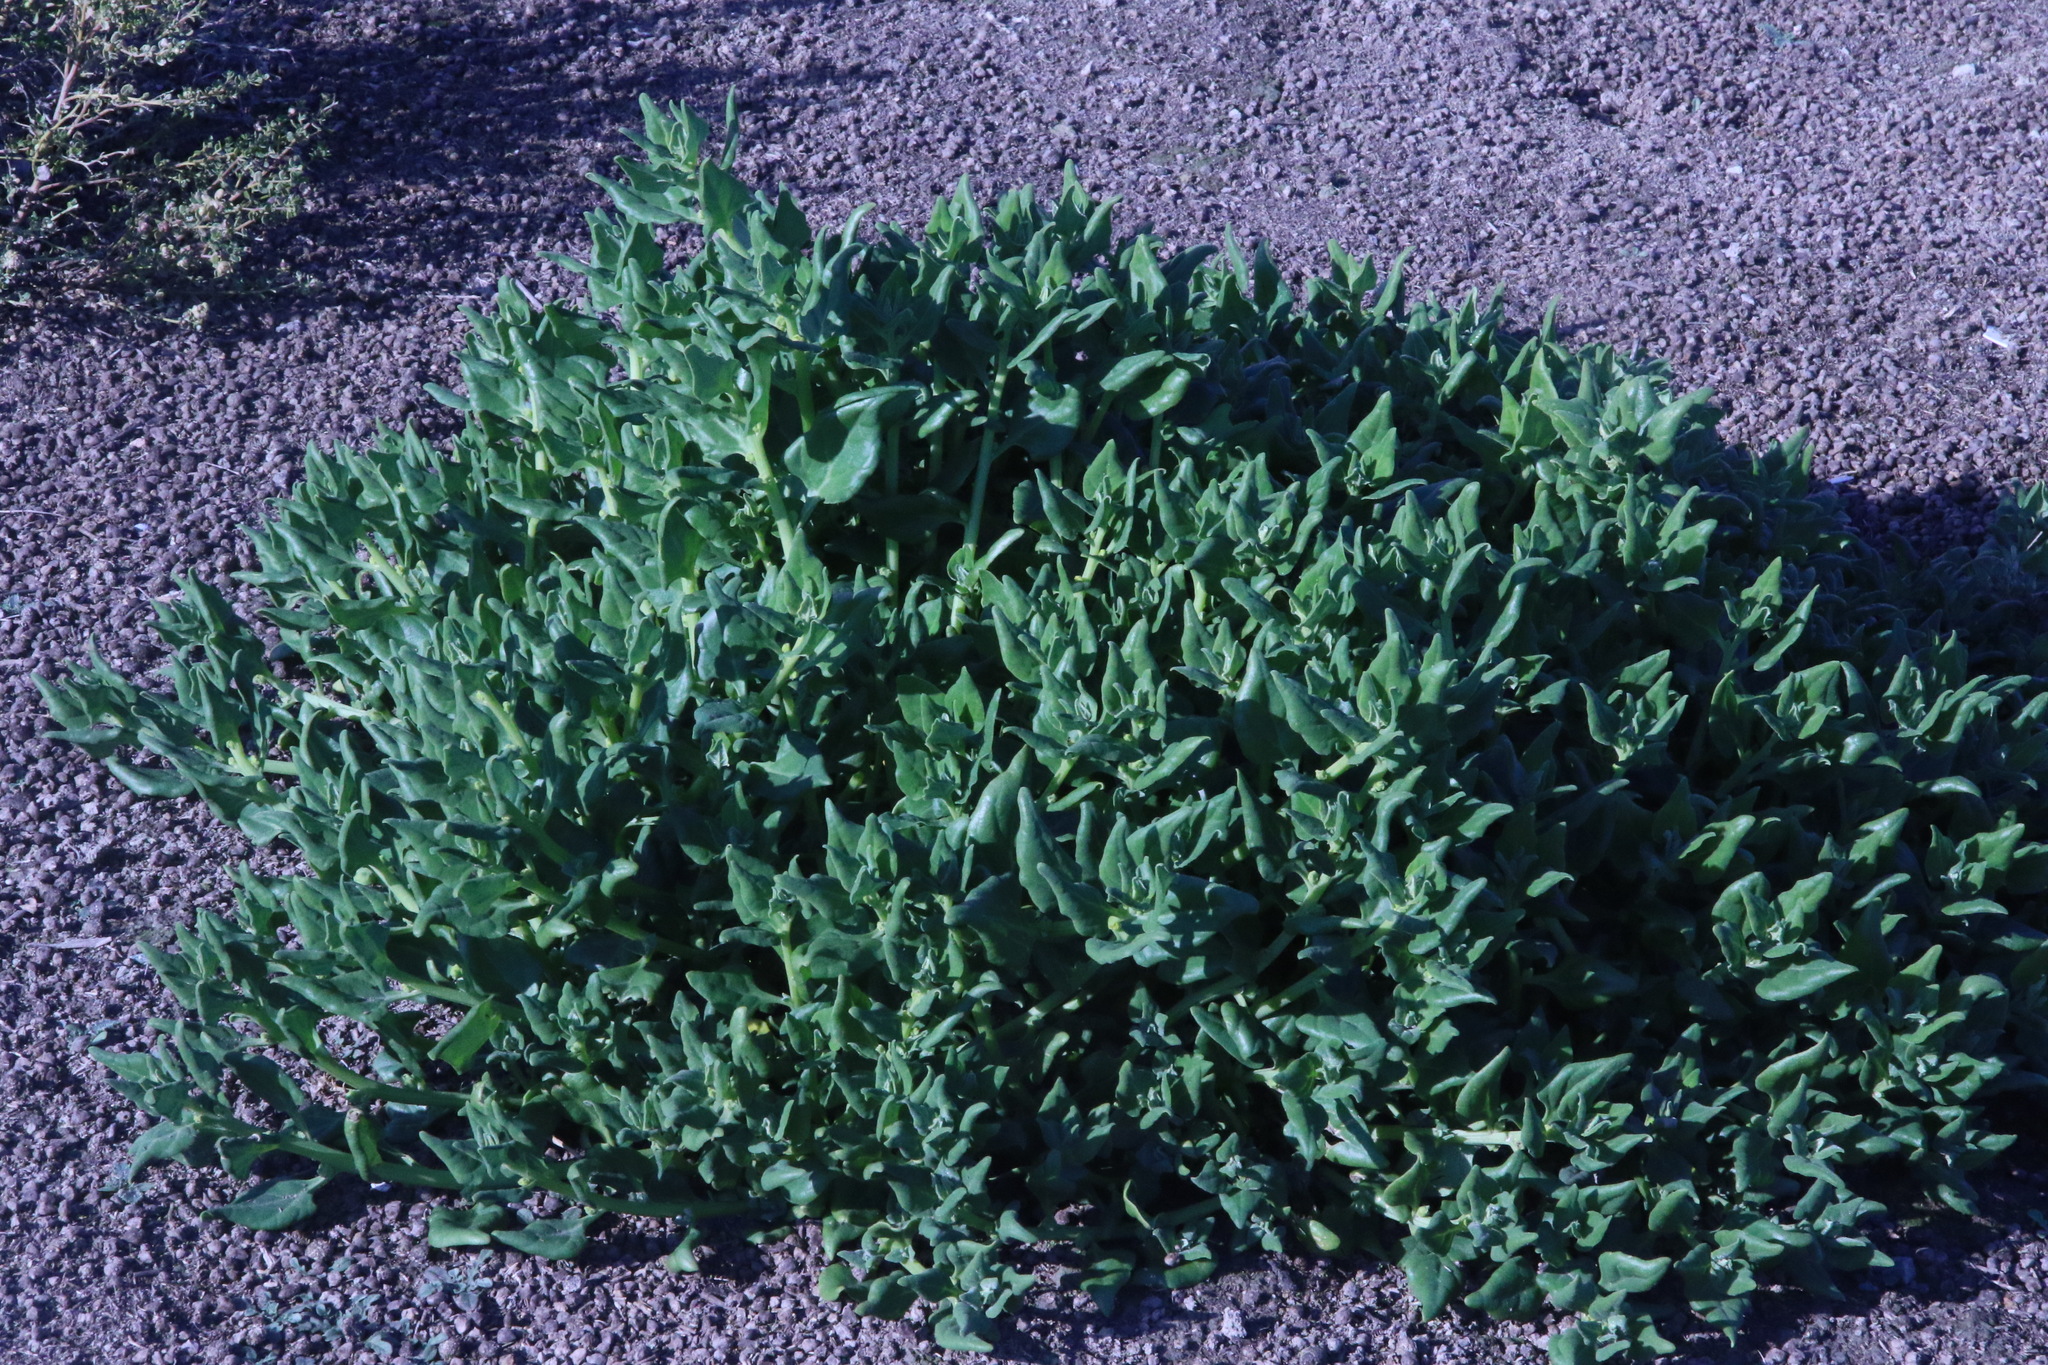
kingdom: Plantae
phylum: Tracheophyta
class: Magnoliopsida
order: Caryophyllales
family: Aizoaceae
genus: Tetragonia
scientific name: Tetragonia tetragonoides
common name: New zealand-spinach
